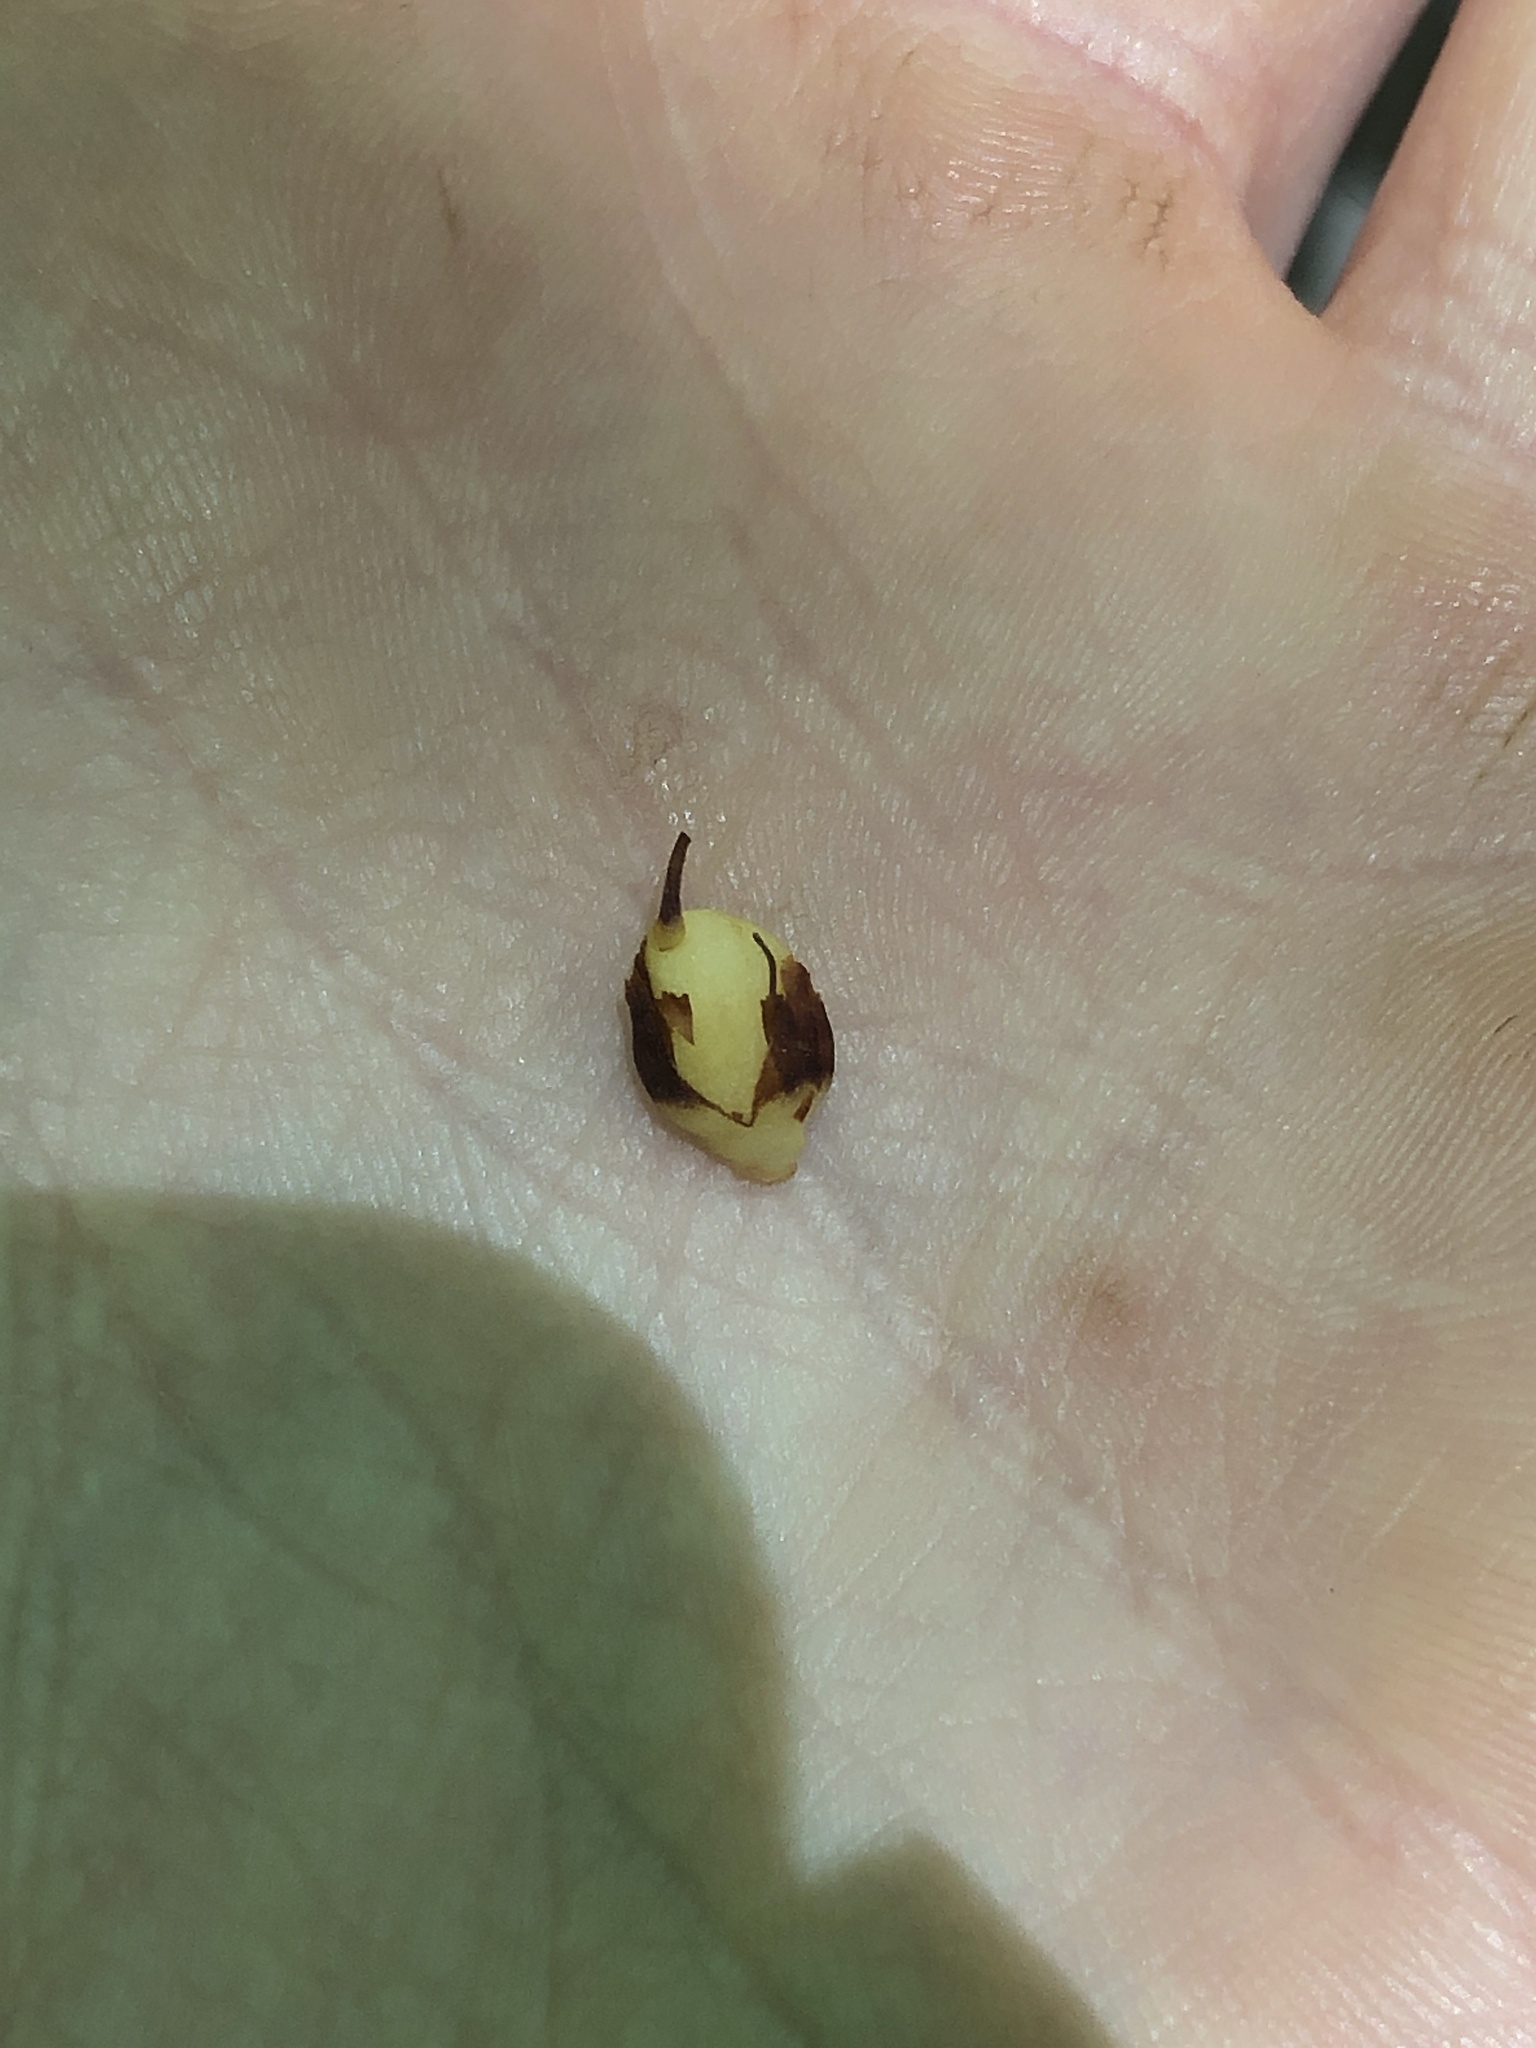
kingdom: Plantae
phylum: Tracheophyta
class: Magnoliopsida
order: Lamiales
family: Orobanchaceae
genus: Conopholis
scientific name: Conopholis americana
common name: American cancer-root
